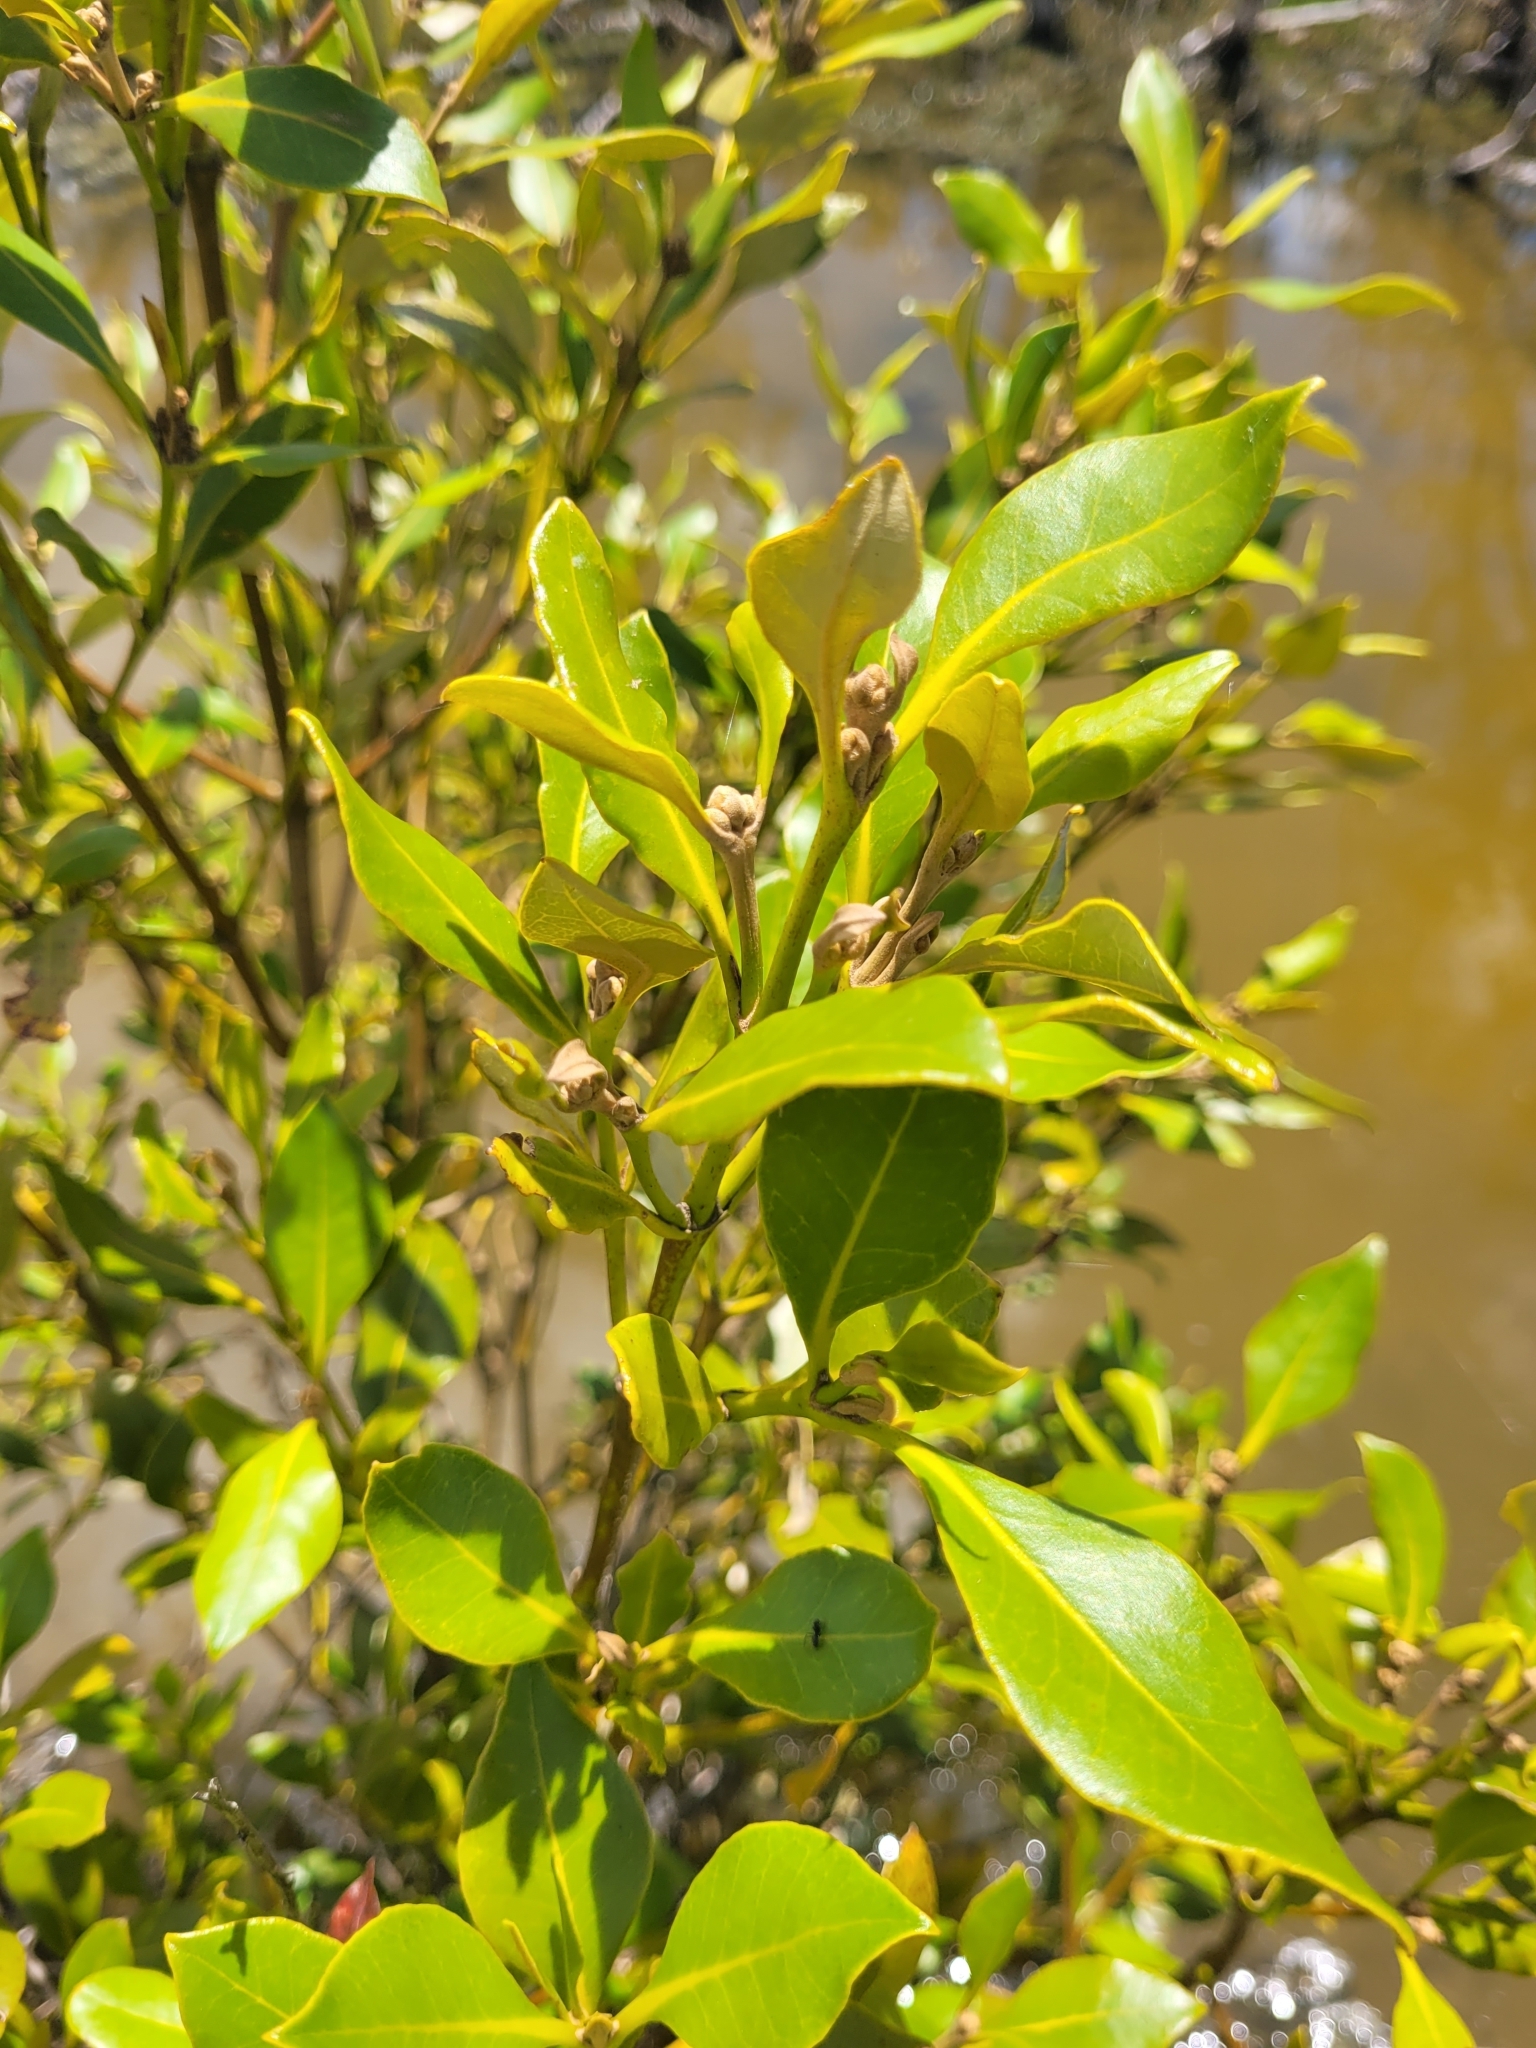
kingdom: Plantae
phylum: Tracheophyta
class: Magnoliopsida
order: Lamiales
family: Acanthaceae
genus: Avicennia
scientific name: Avicennia marina
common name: Gray mangrove
